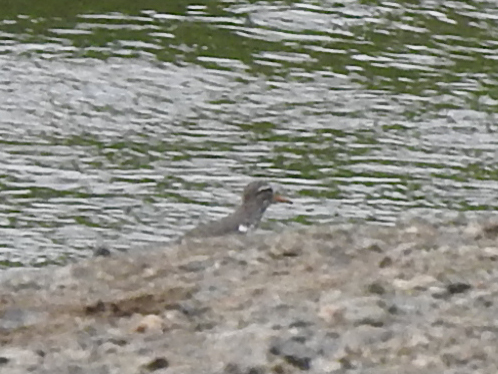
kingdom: Animalia
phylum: Chordata
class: Aves
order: Charadriiformes
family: Scolopacidae
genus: Actitis
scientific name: Actitis macularius
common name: Spotted sandpiper
